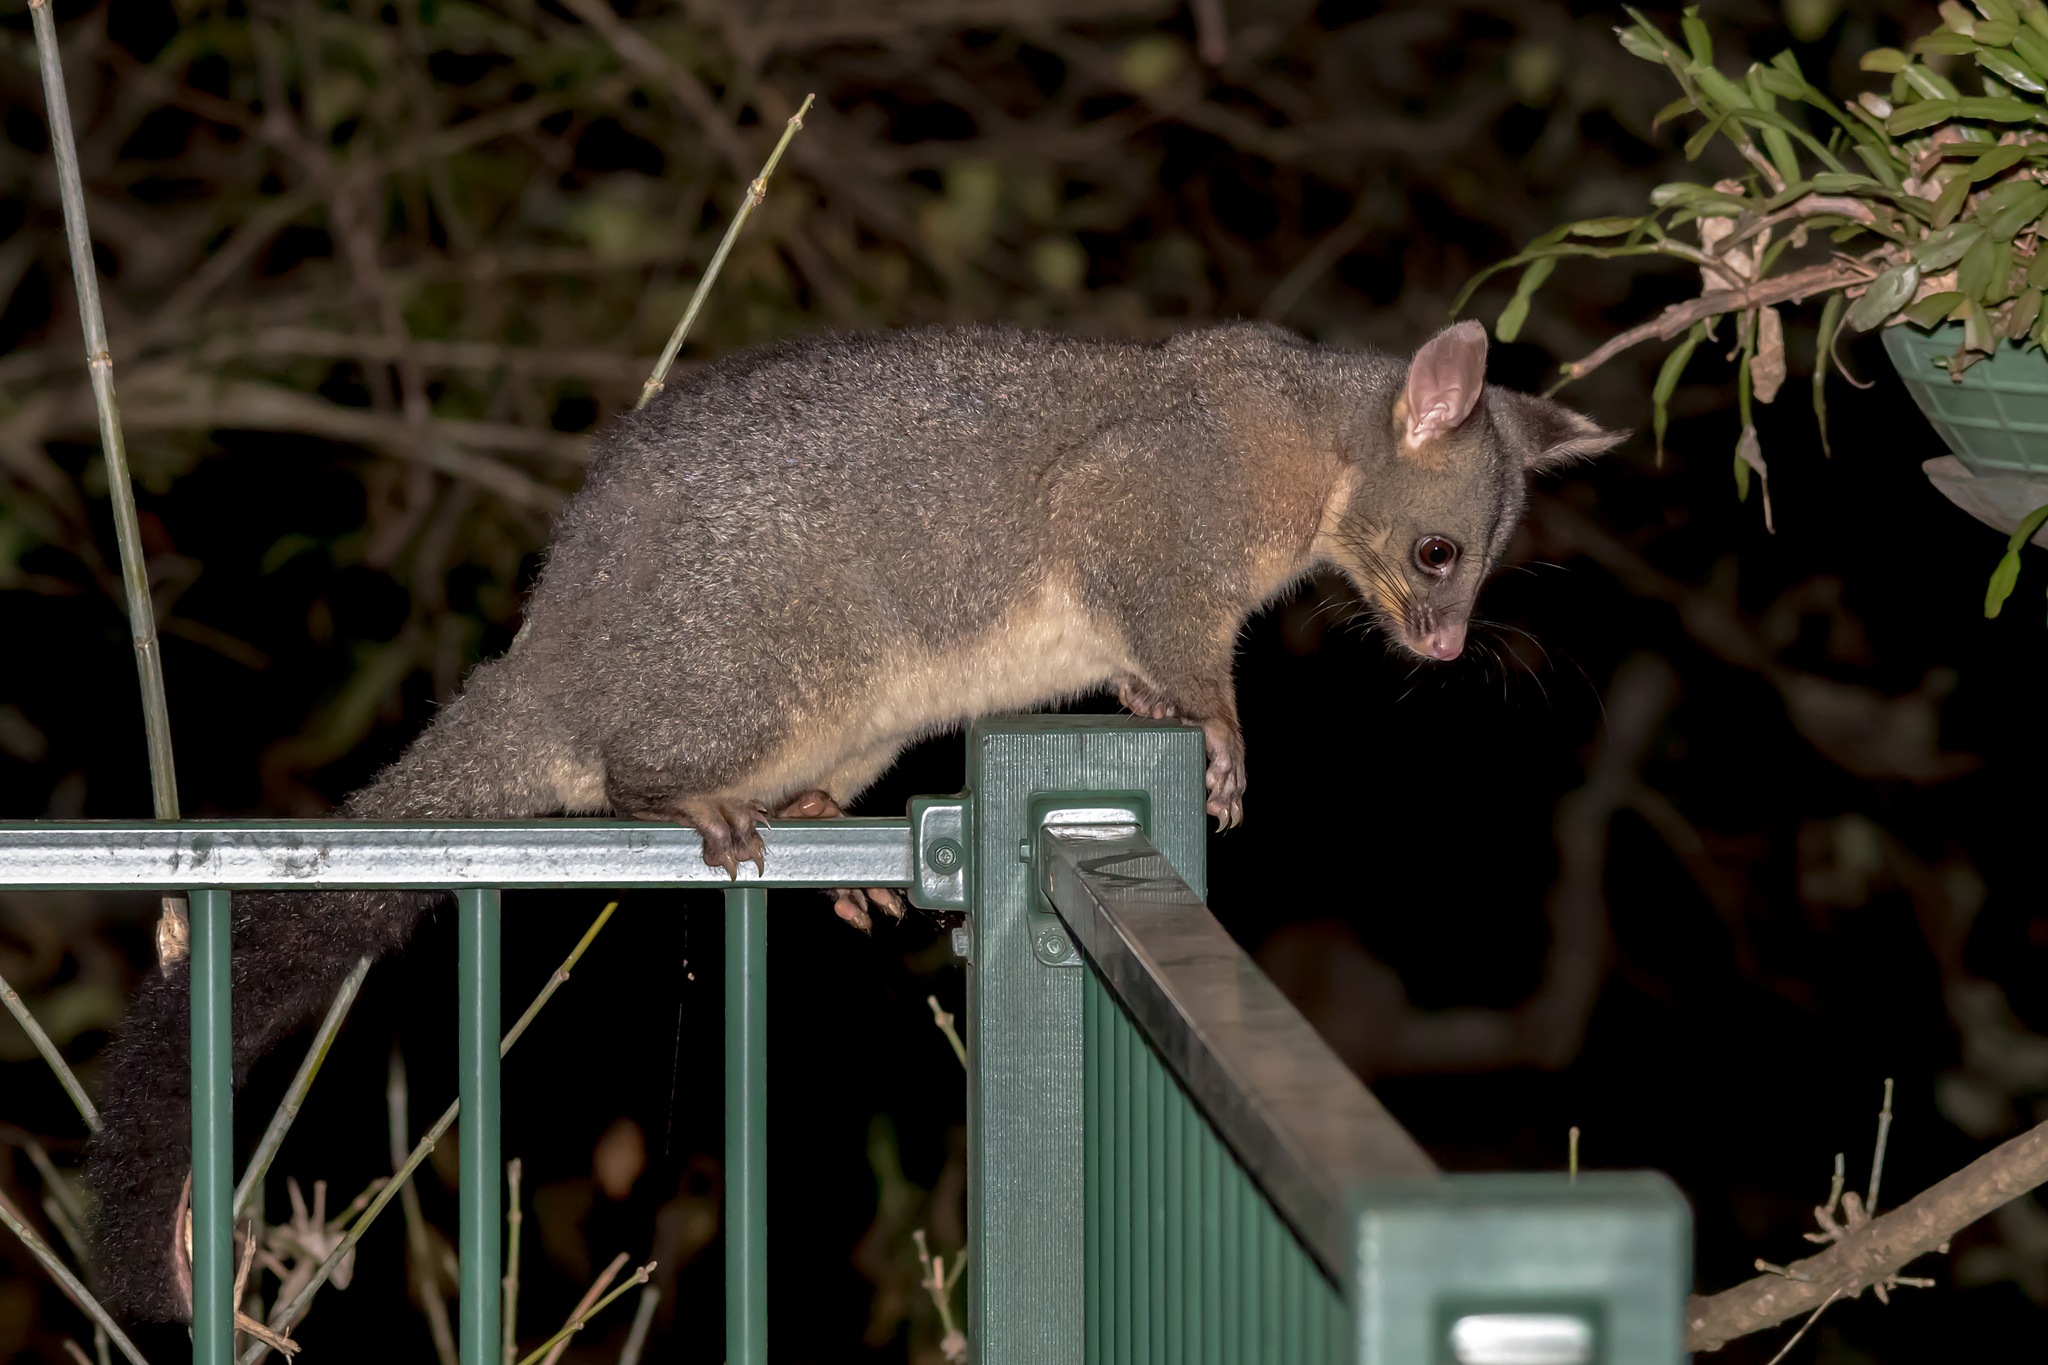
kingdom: Animalia
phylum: Chordata
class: Mammalia
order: Diprotodontia
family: Phalangeridae
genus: Trichosurus
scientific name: Trichosurus vulpecula
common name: Common brushtail
